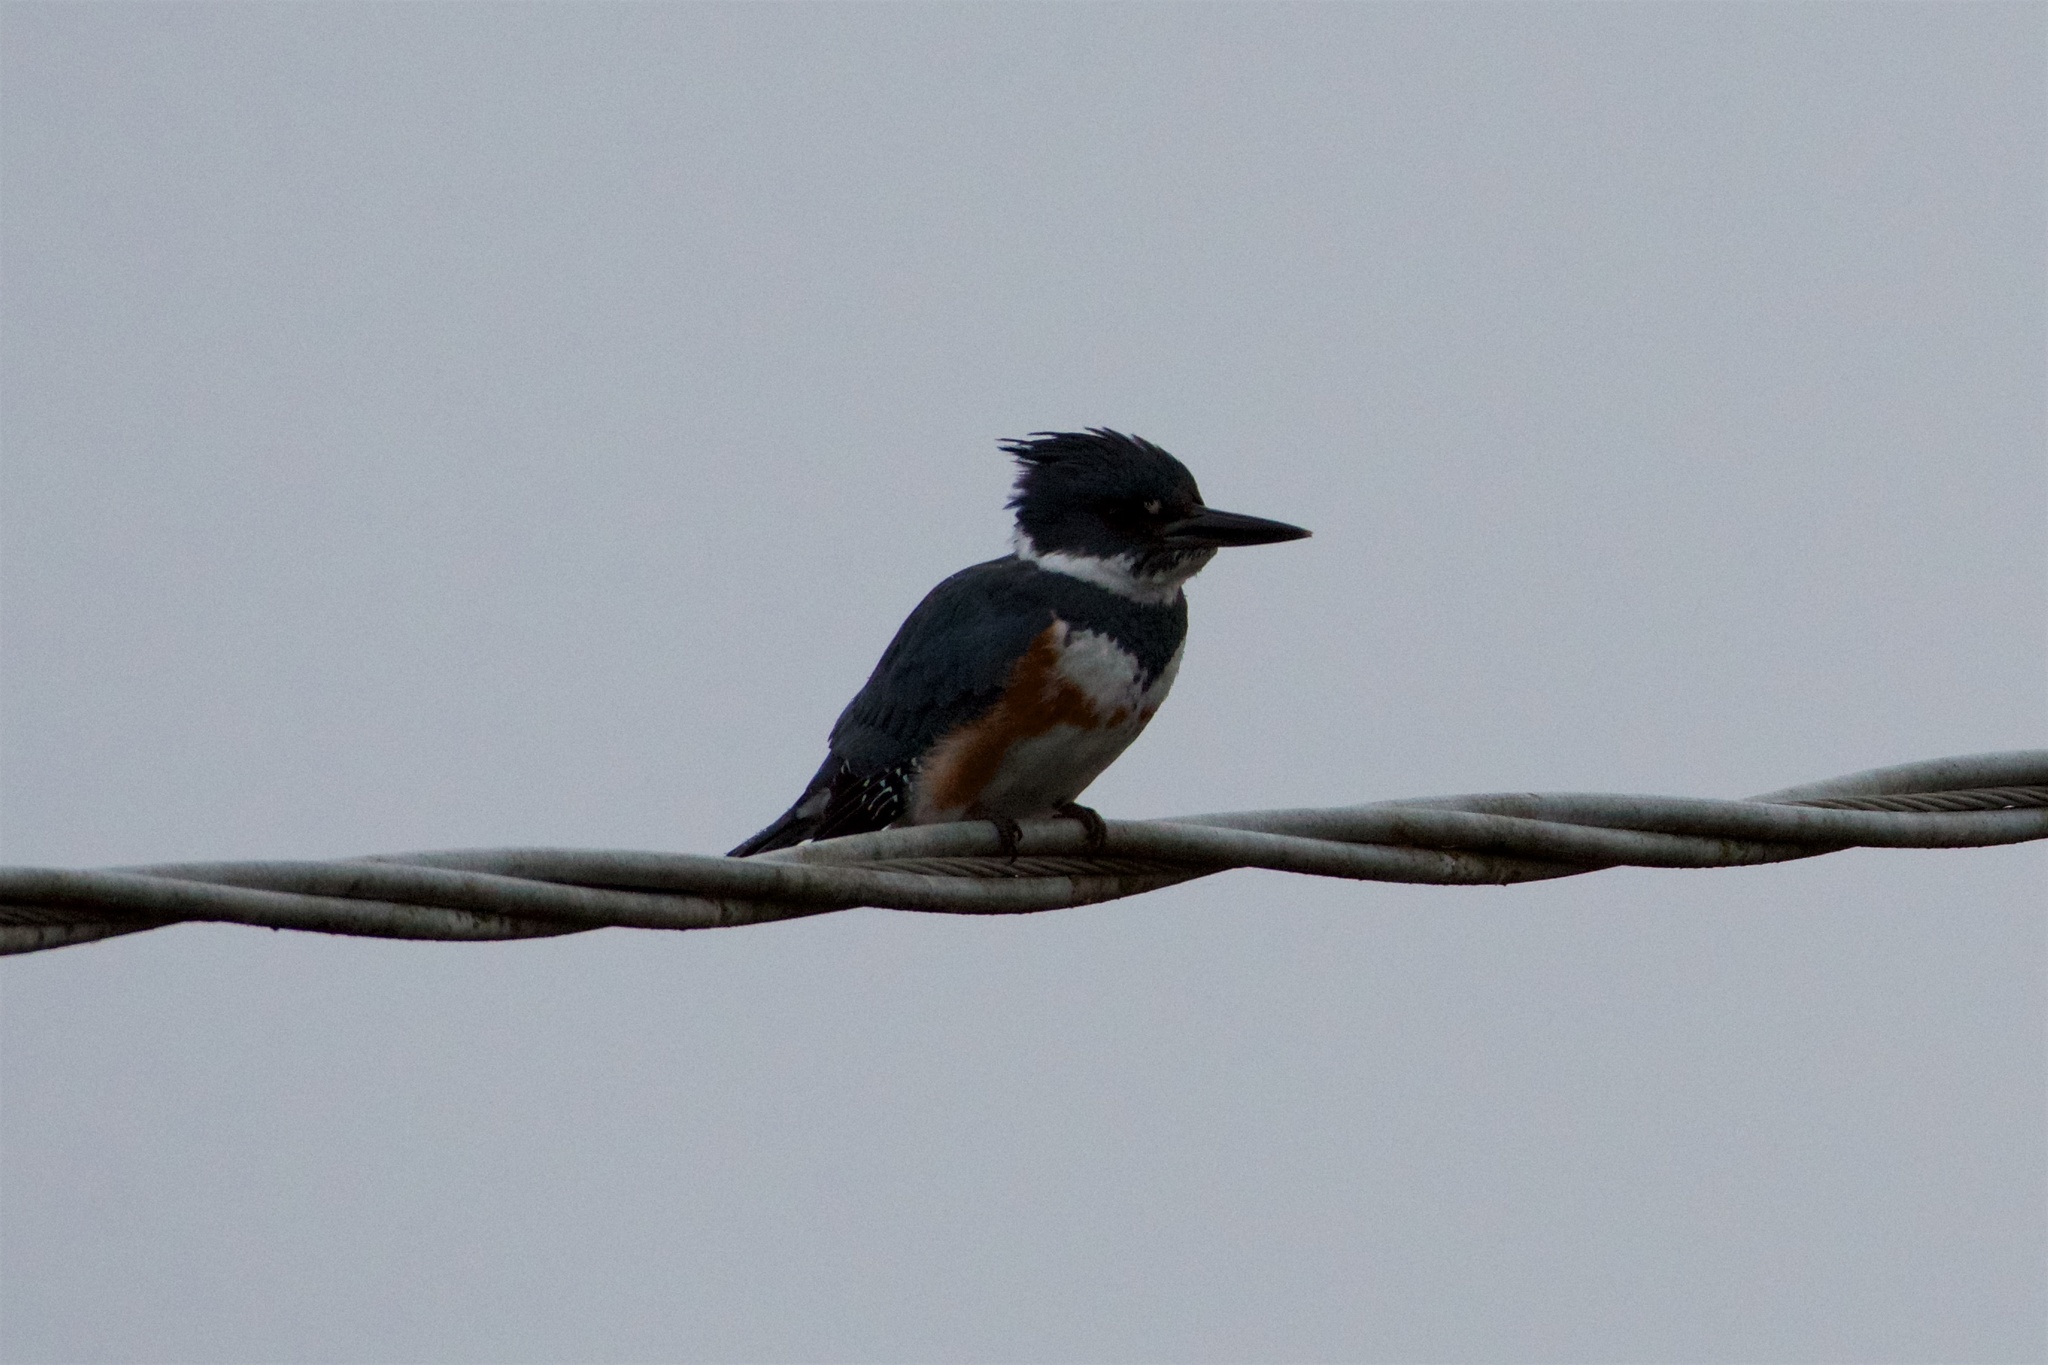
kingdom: Animalia
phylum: Chordata
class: Aves
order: Coraciiformes
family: Alcedinidae
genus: Megaceryle
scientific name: Megaceryle alcyon
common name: Belted kingfisher
